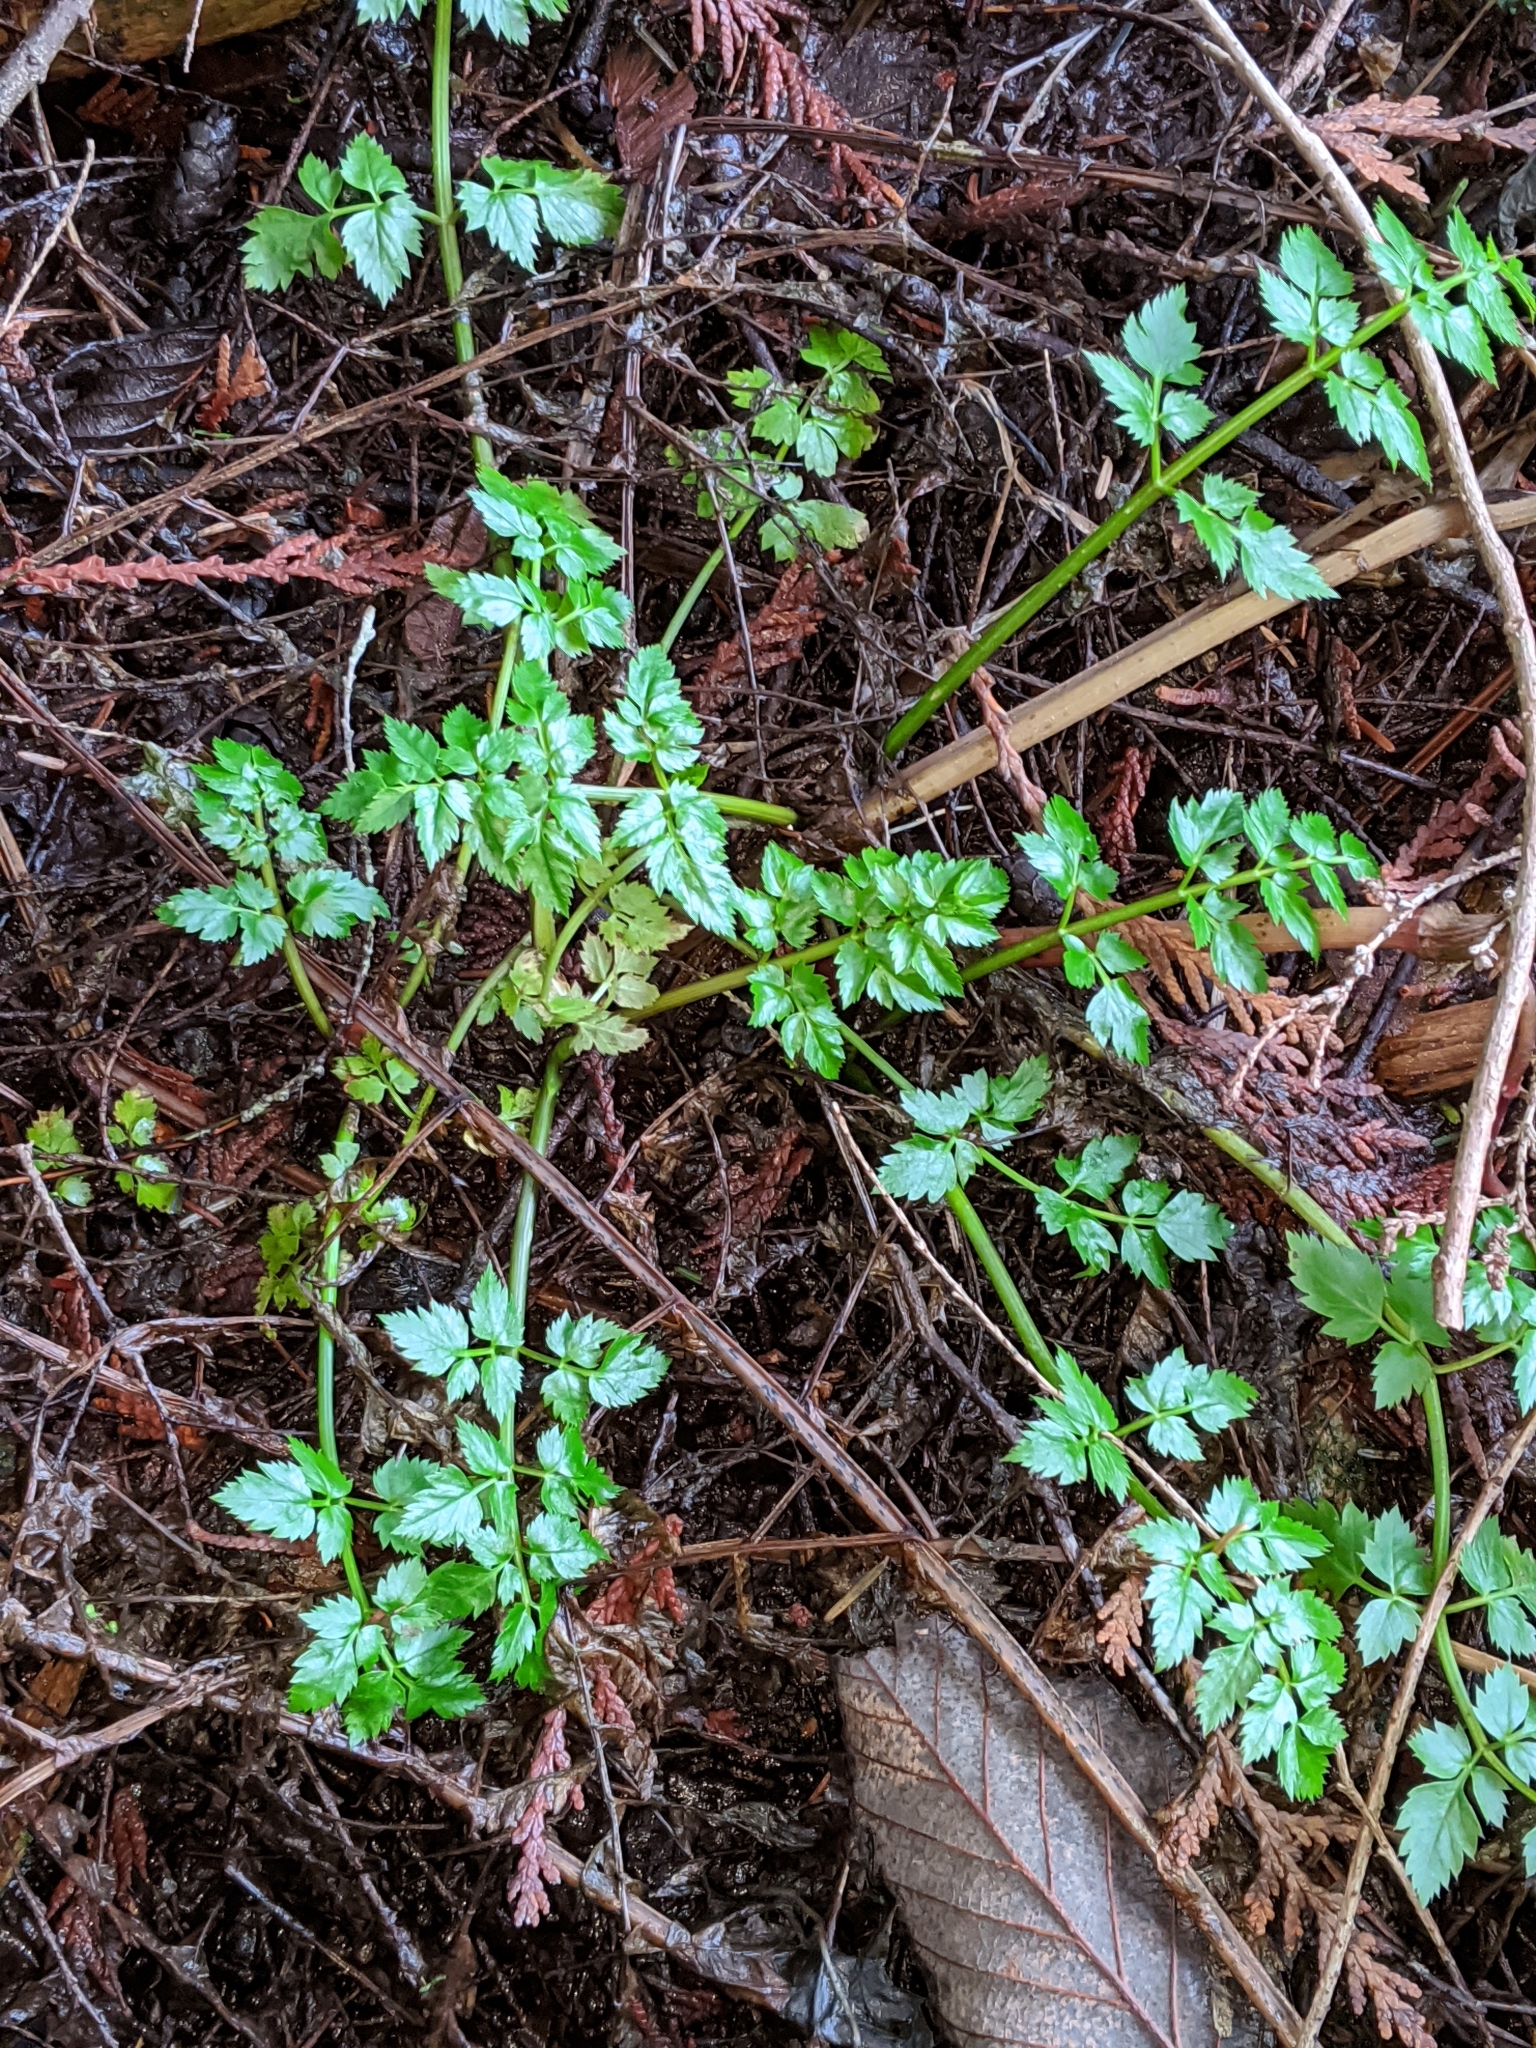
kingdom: Plantae
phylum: Tracheophyta
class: Magnoliopsida
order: Apiales
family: Apiaceae
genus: Oenanthe
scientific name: Oenanthe sarmentosa
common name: American water-parsley
